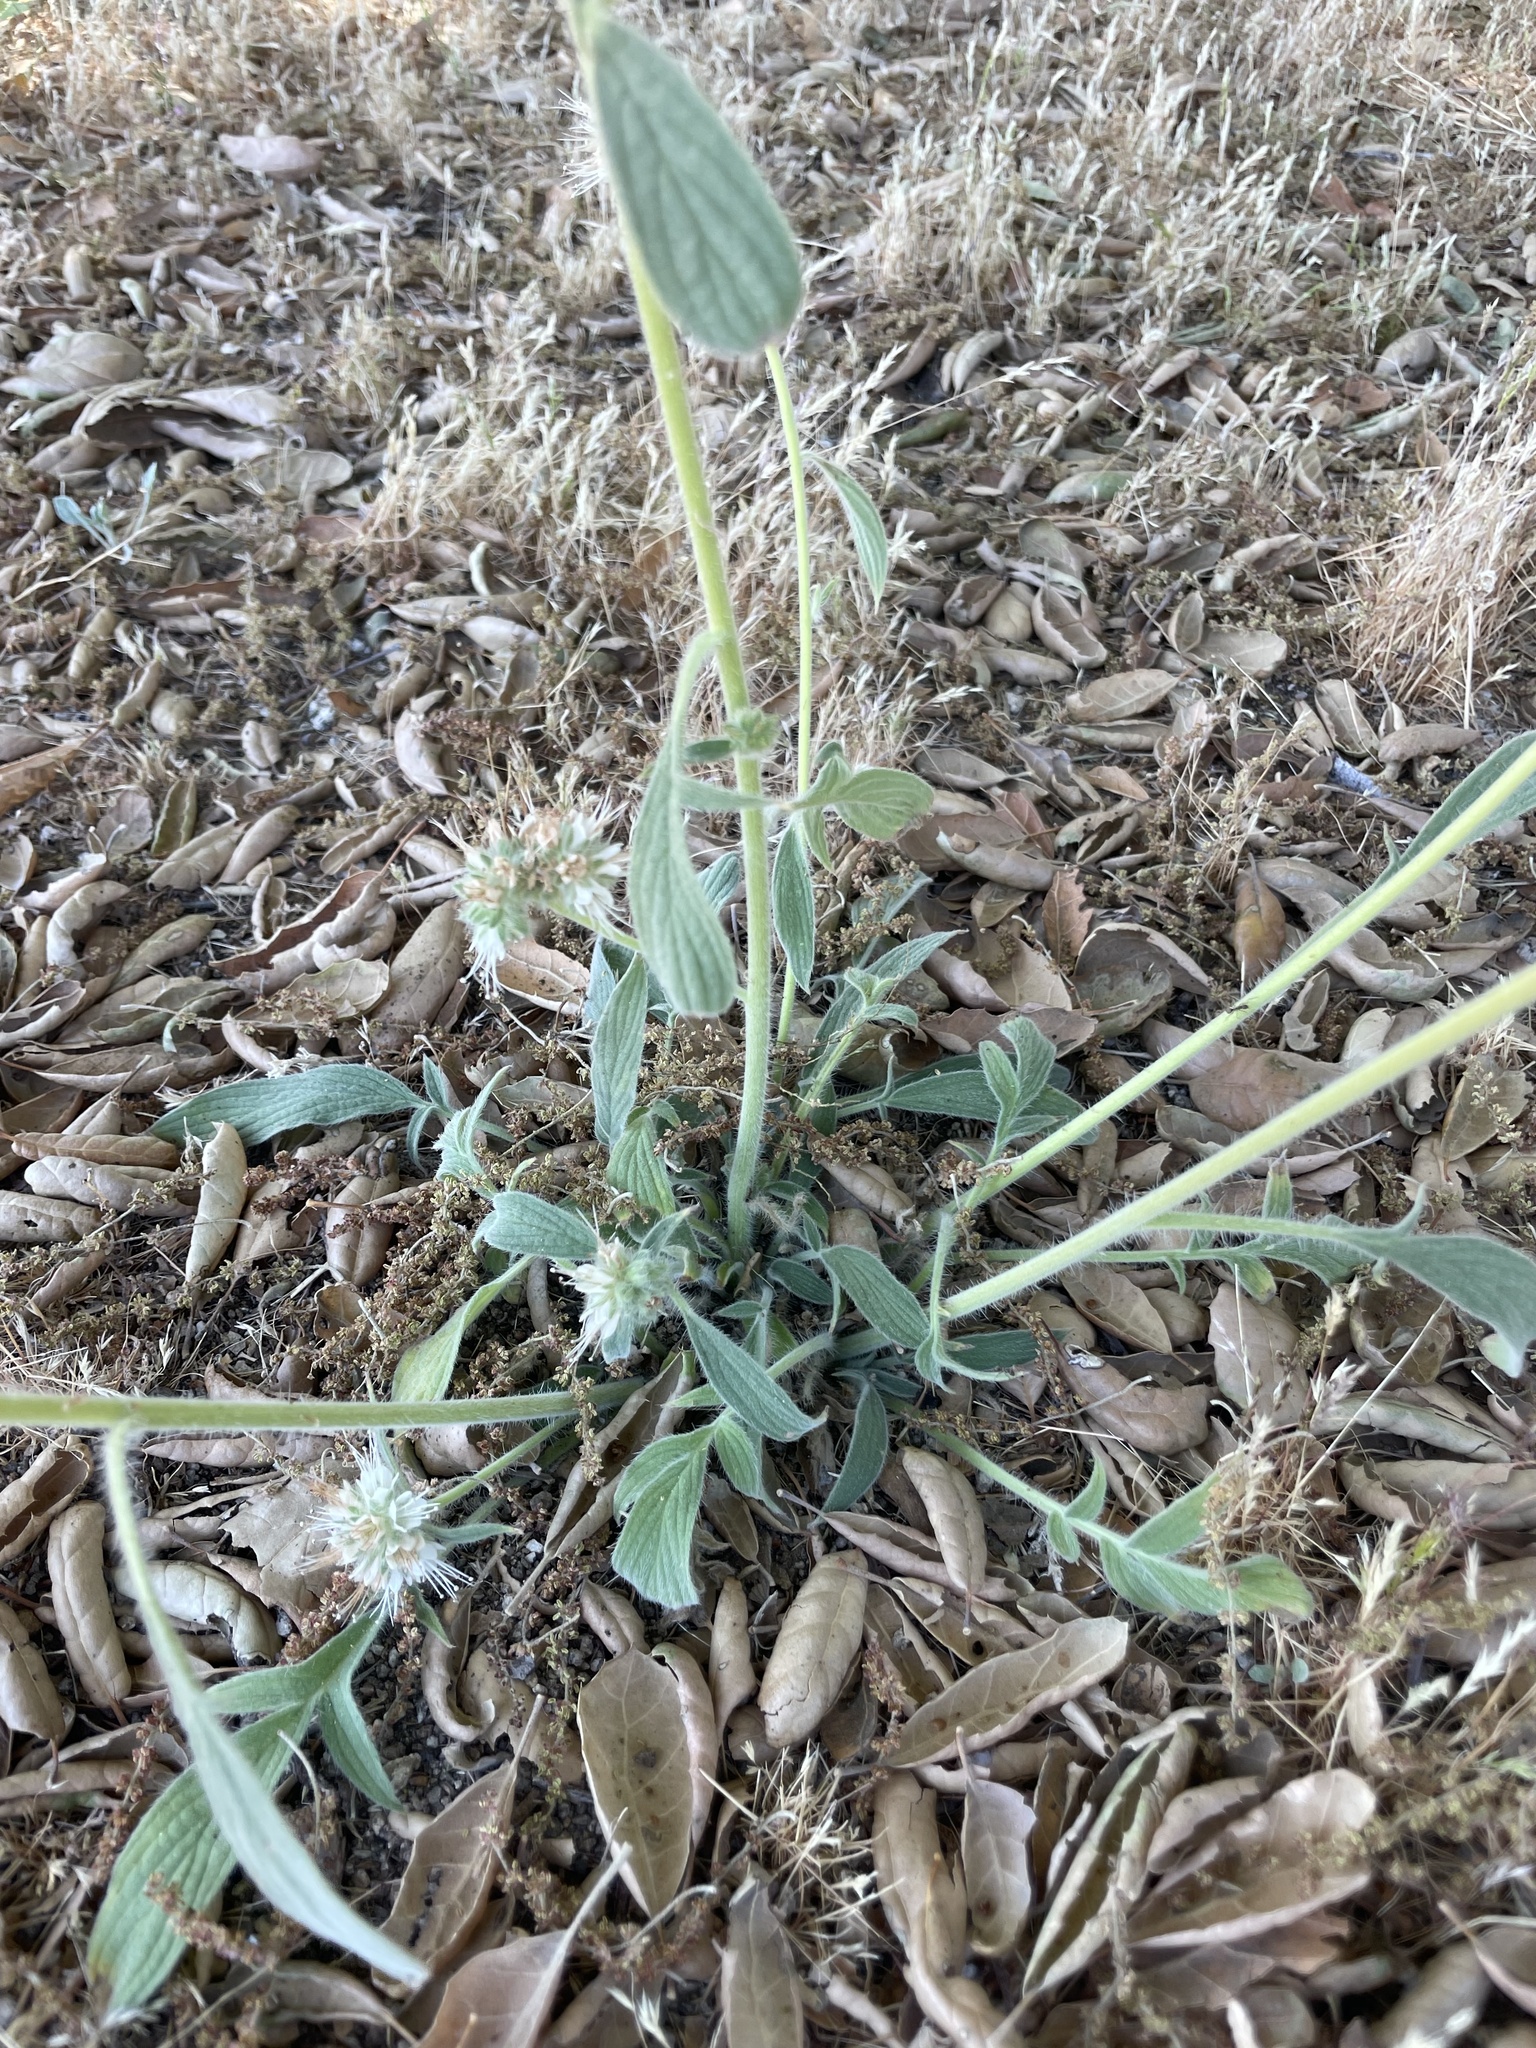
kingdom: Plantae
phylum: Tracheophyta
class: Magnoliopsida
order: Boraginales
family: Hydrophyllaceae
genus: Phacelia
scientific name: Phacelia imbricata
